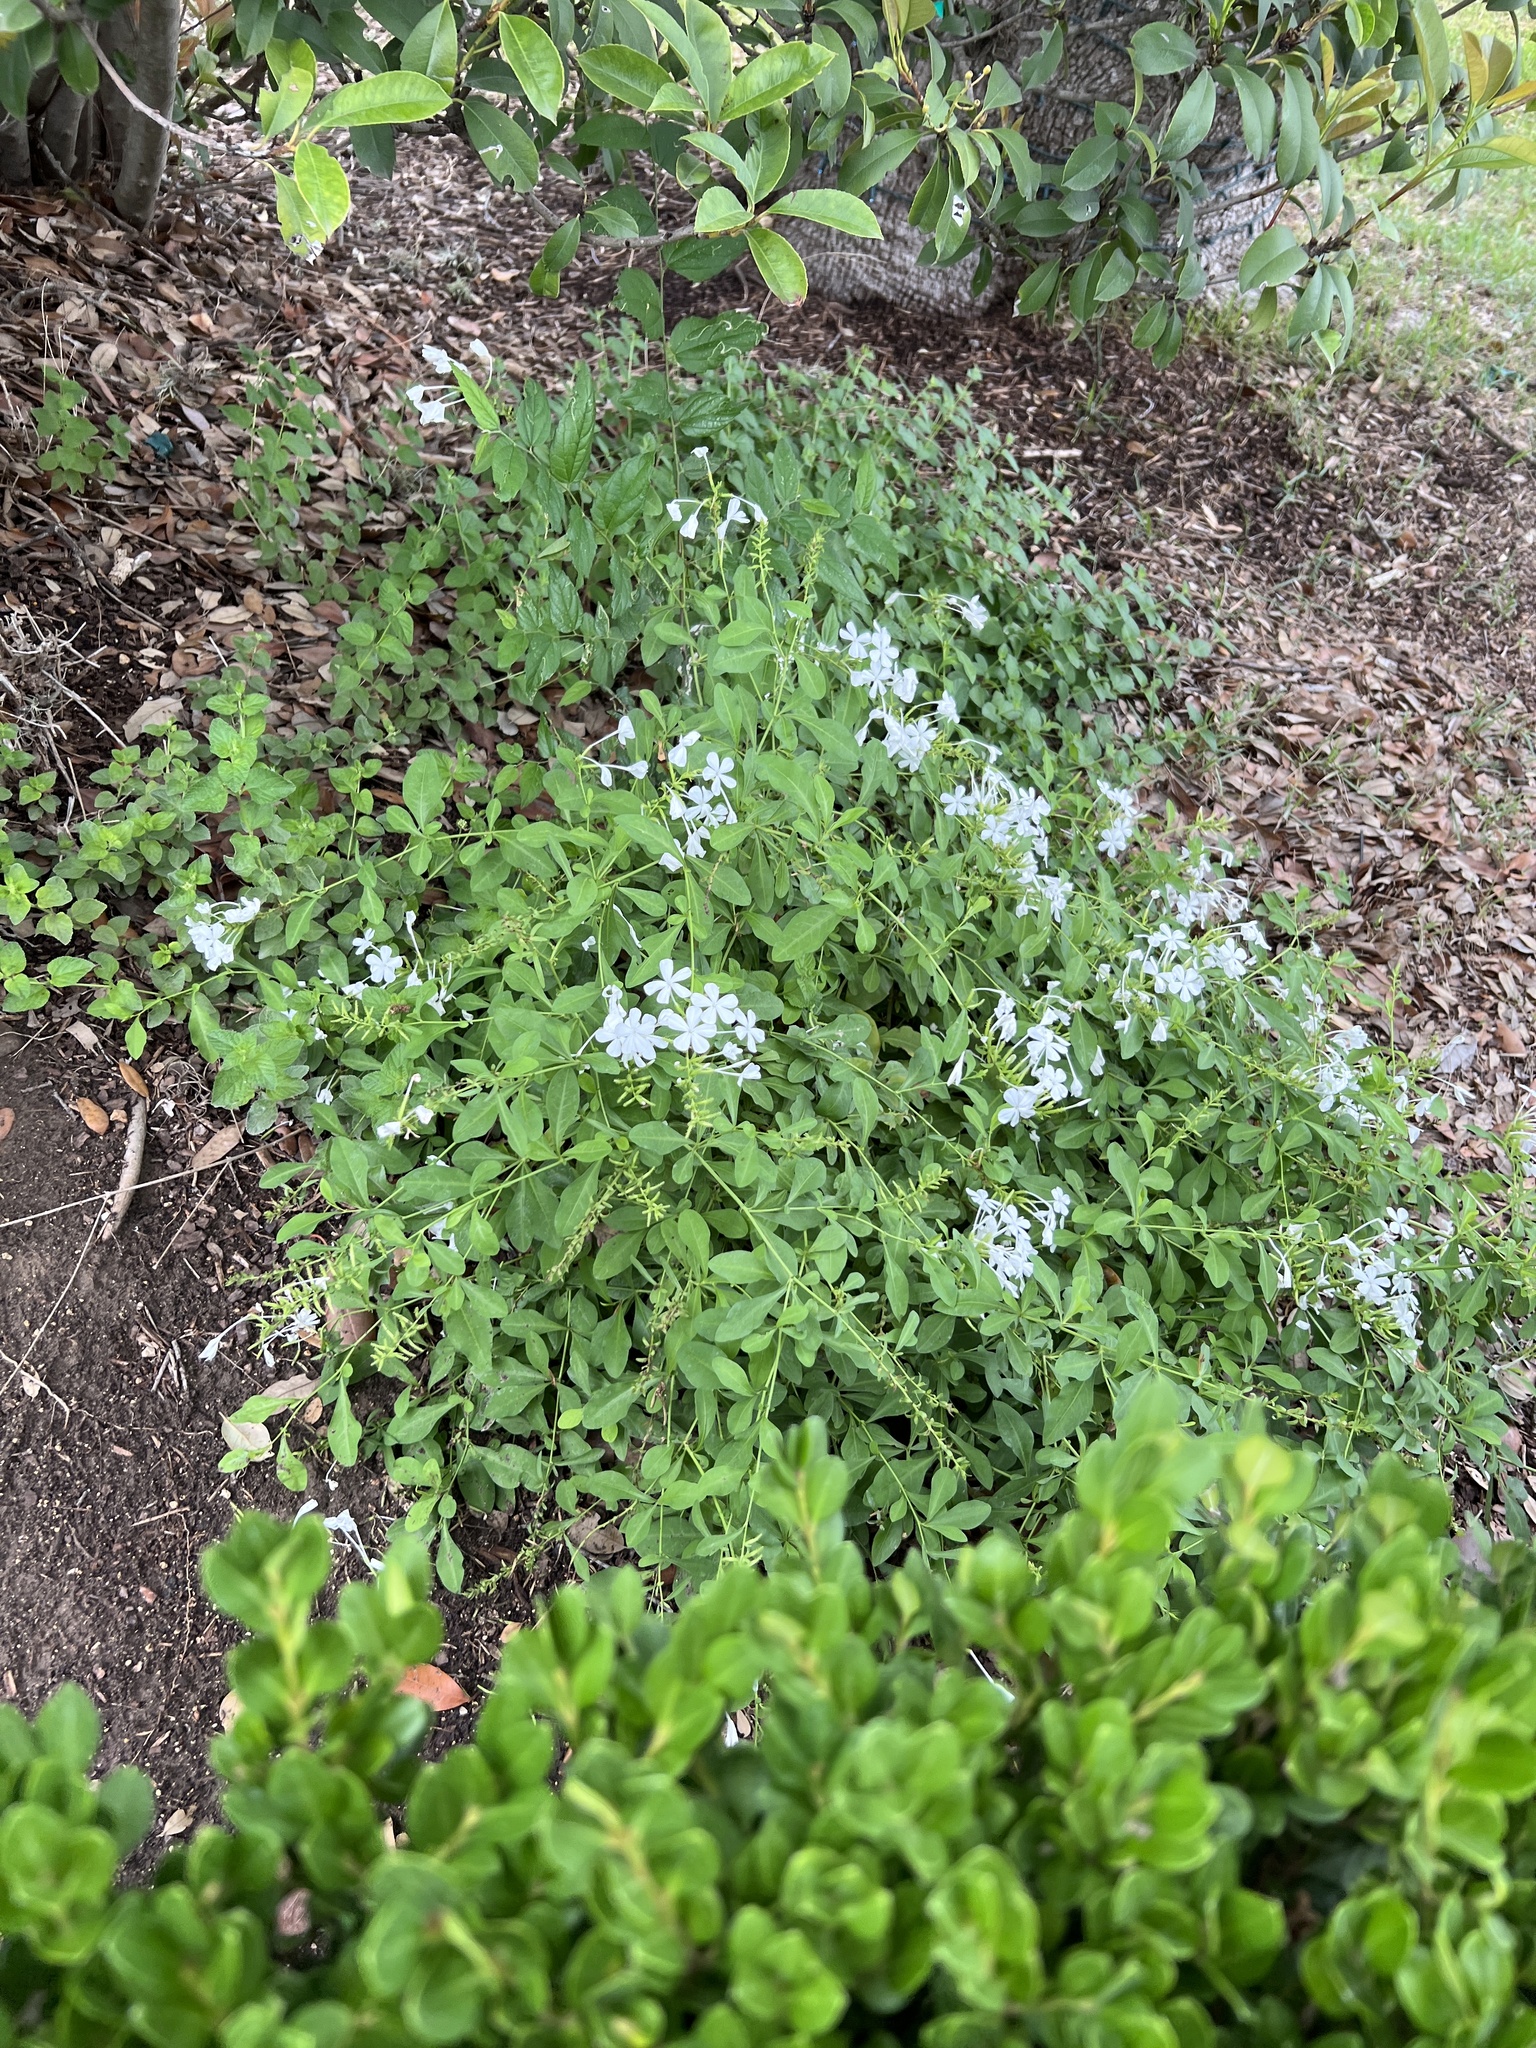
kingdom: Plantae
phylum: Tracheophyta
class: Magnoliopsida
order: Caryophyllales
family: Plumbaginaceae
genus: Plumbago
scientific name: Plumbago auriculata
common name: Cape leadwort
